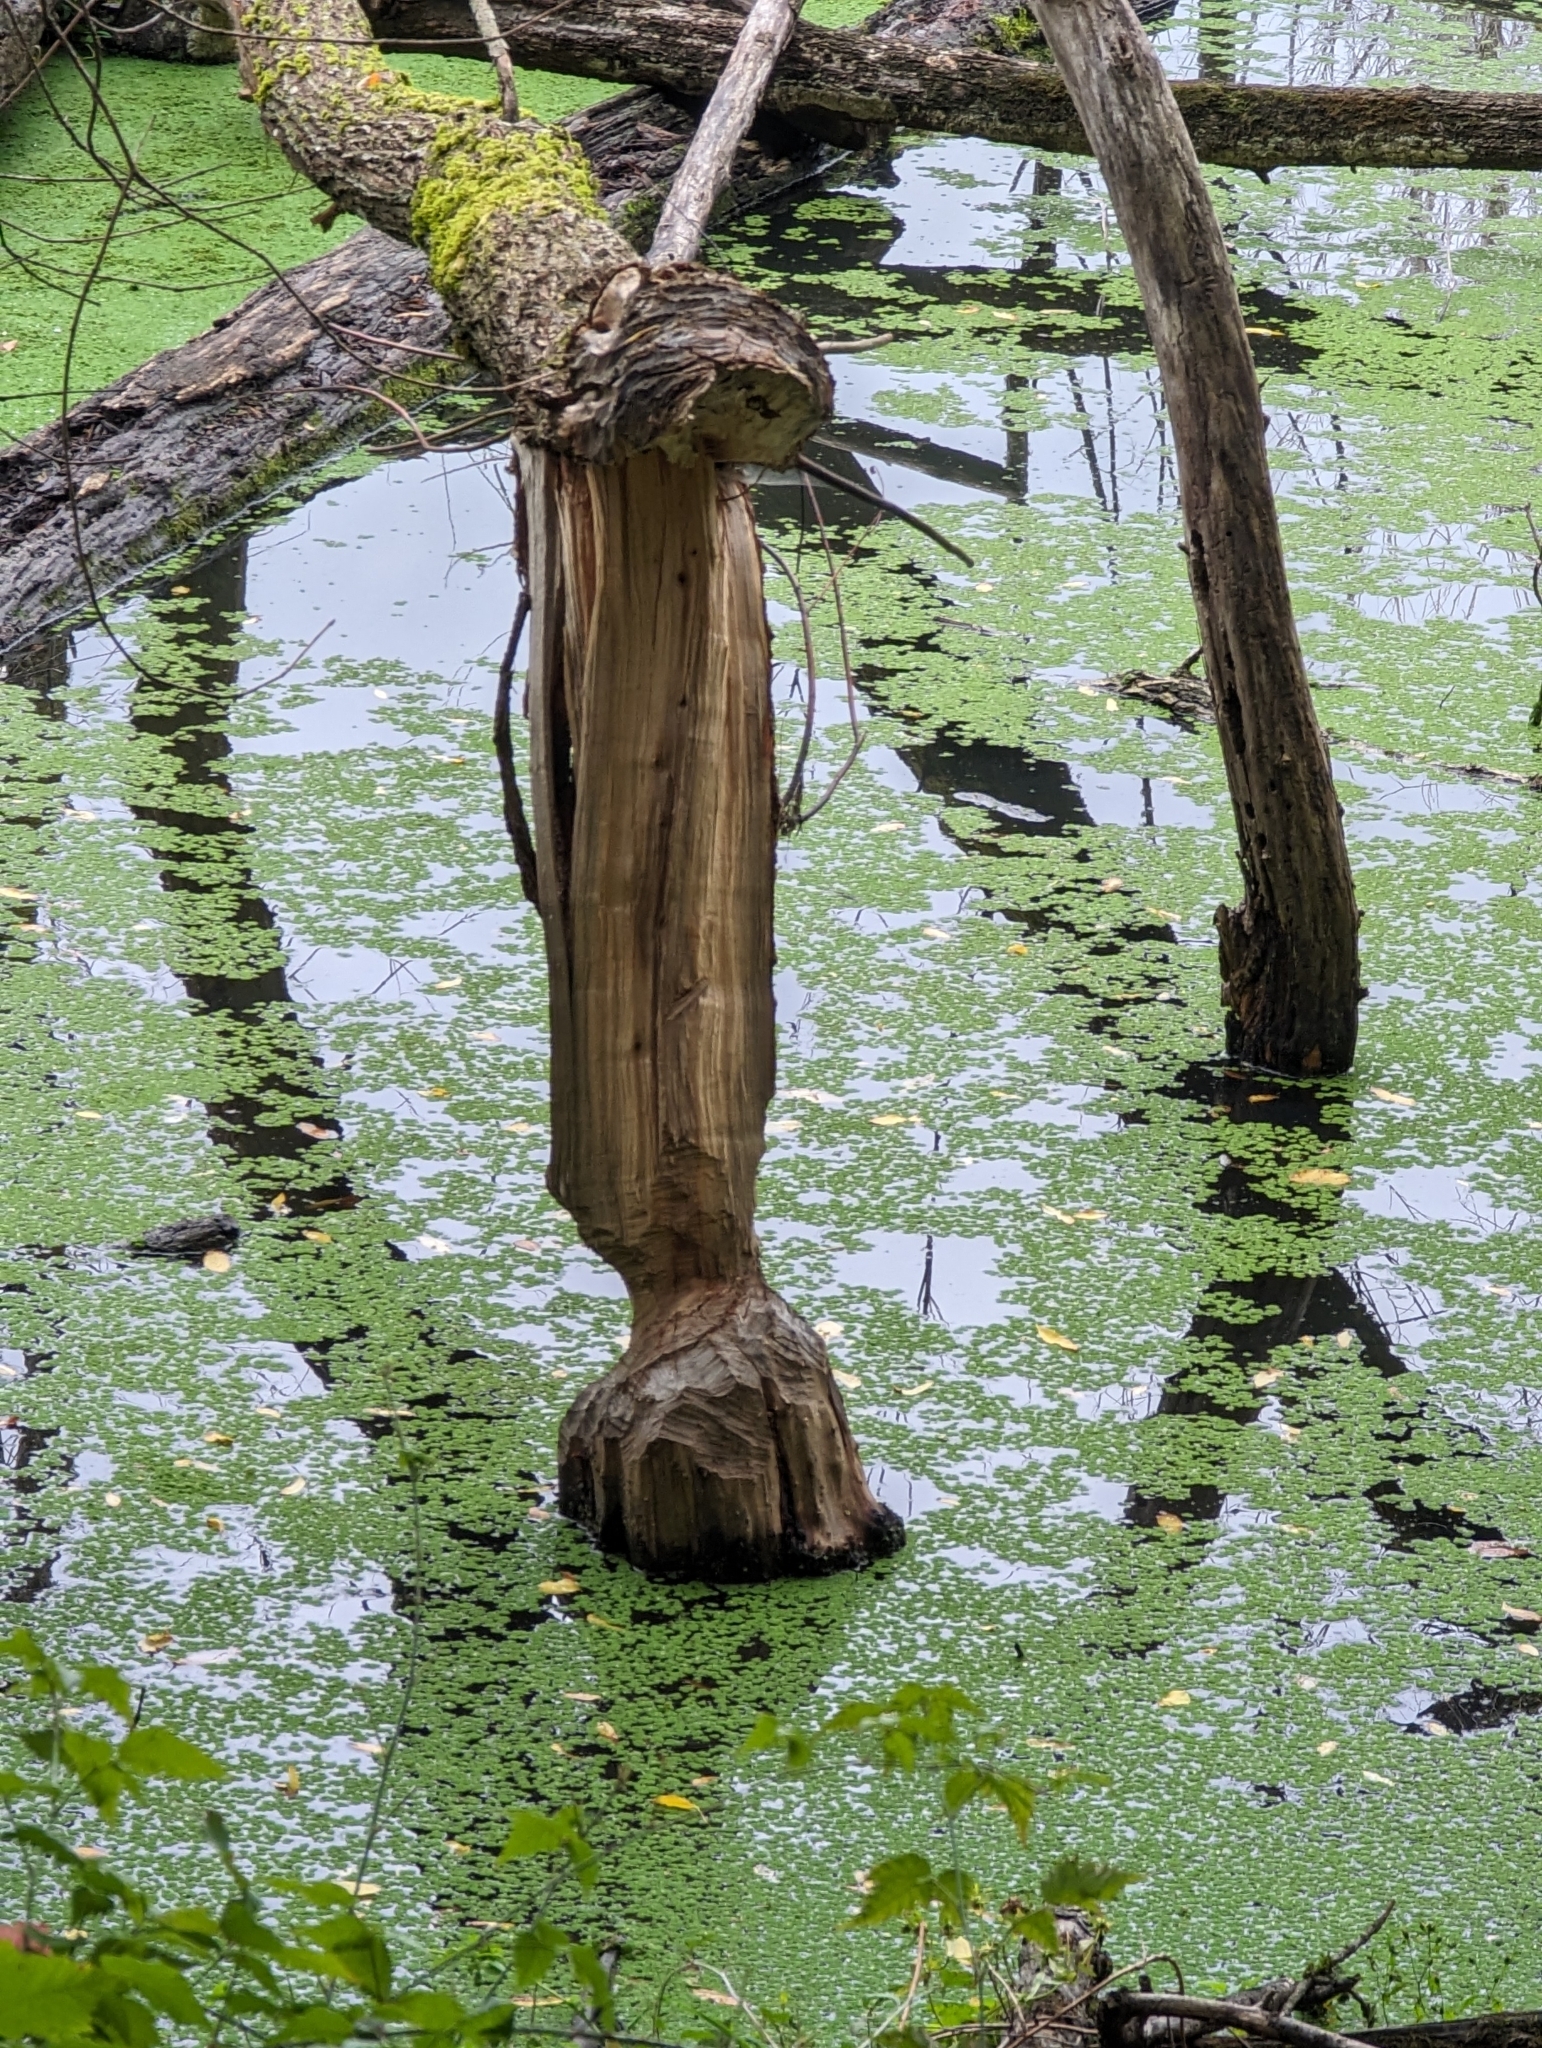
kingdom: Animalia
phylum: Chordata
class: Mammalia
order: Rodentia
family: Castoridae
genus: Castor
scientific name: Castor canadensis
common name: American beaver
